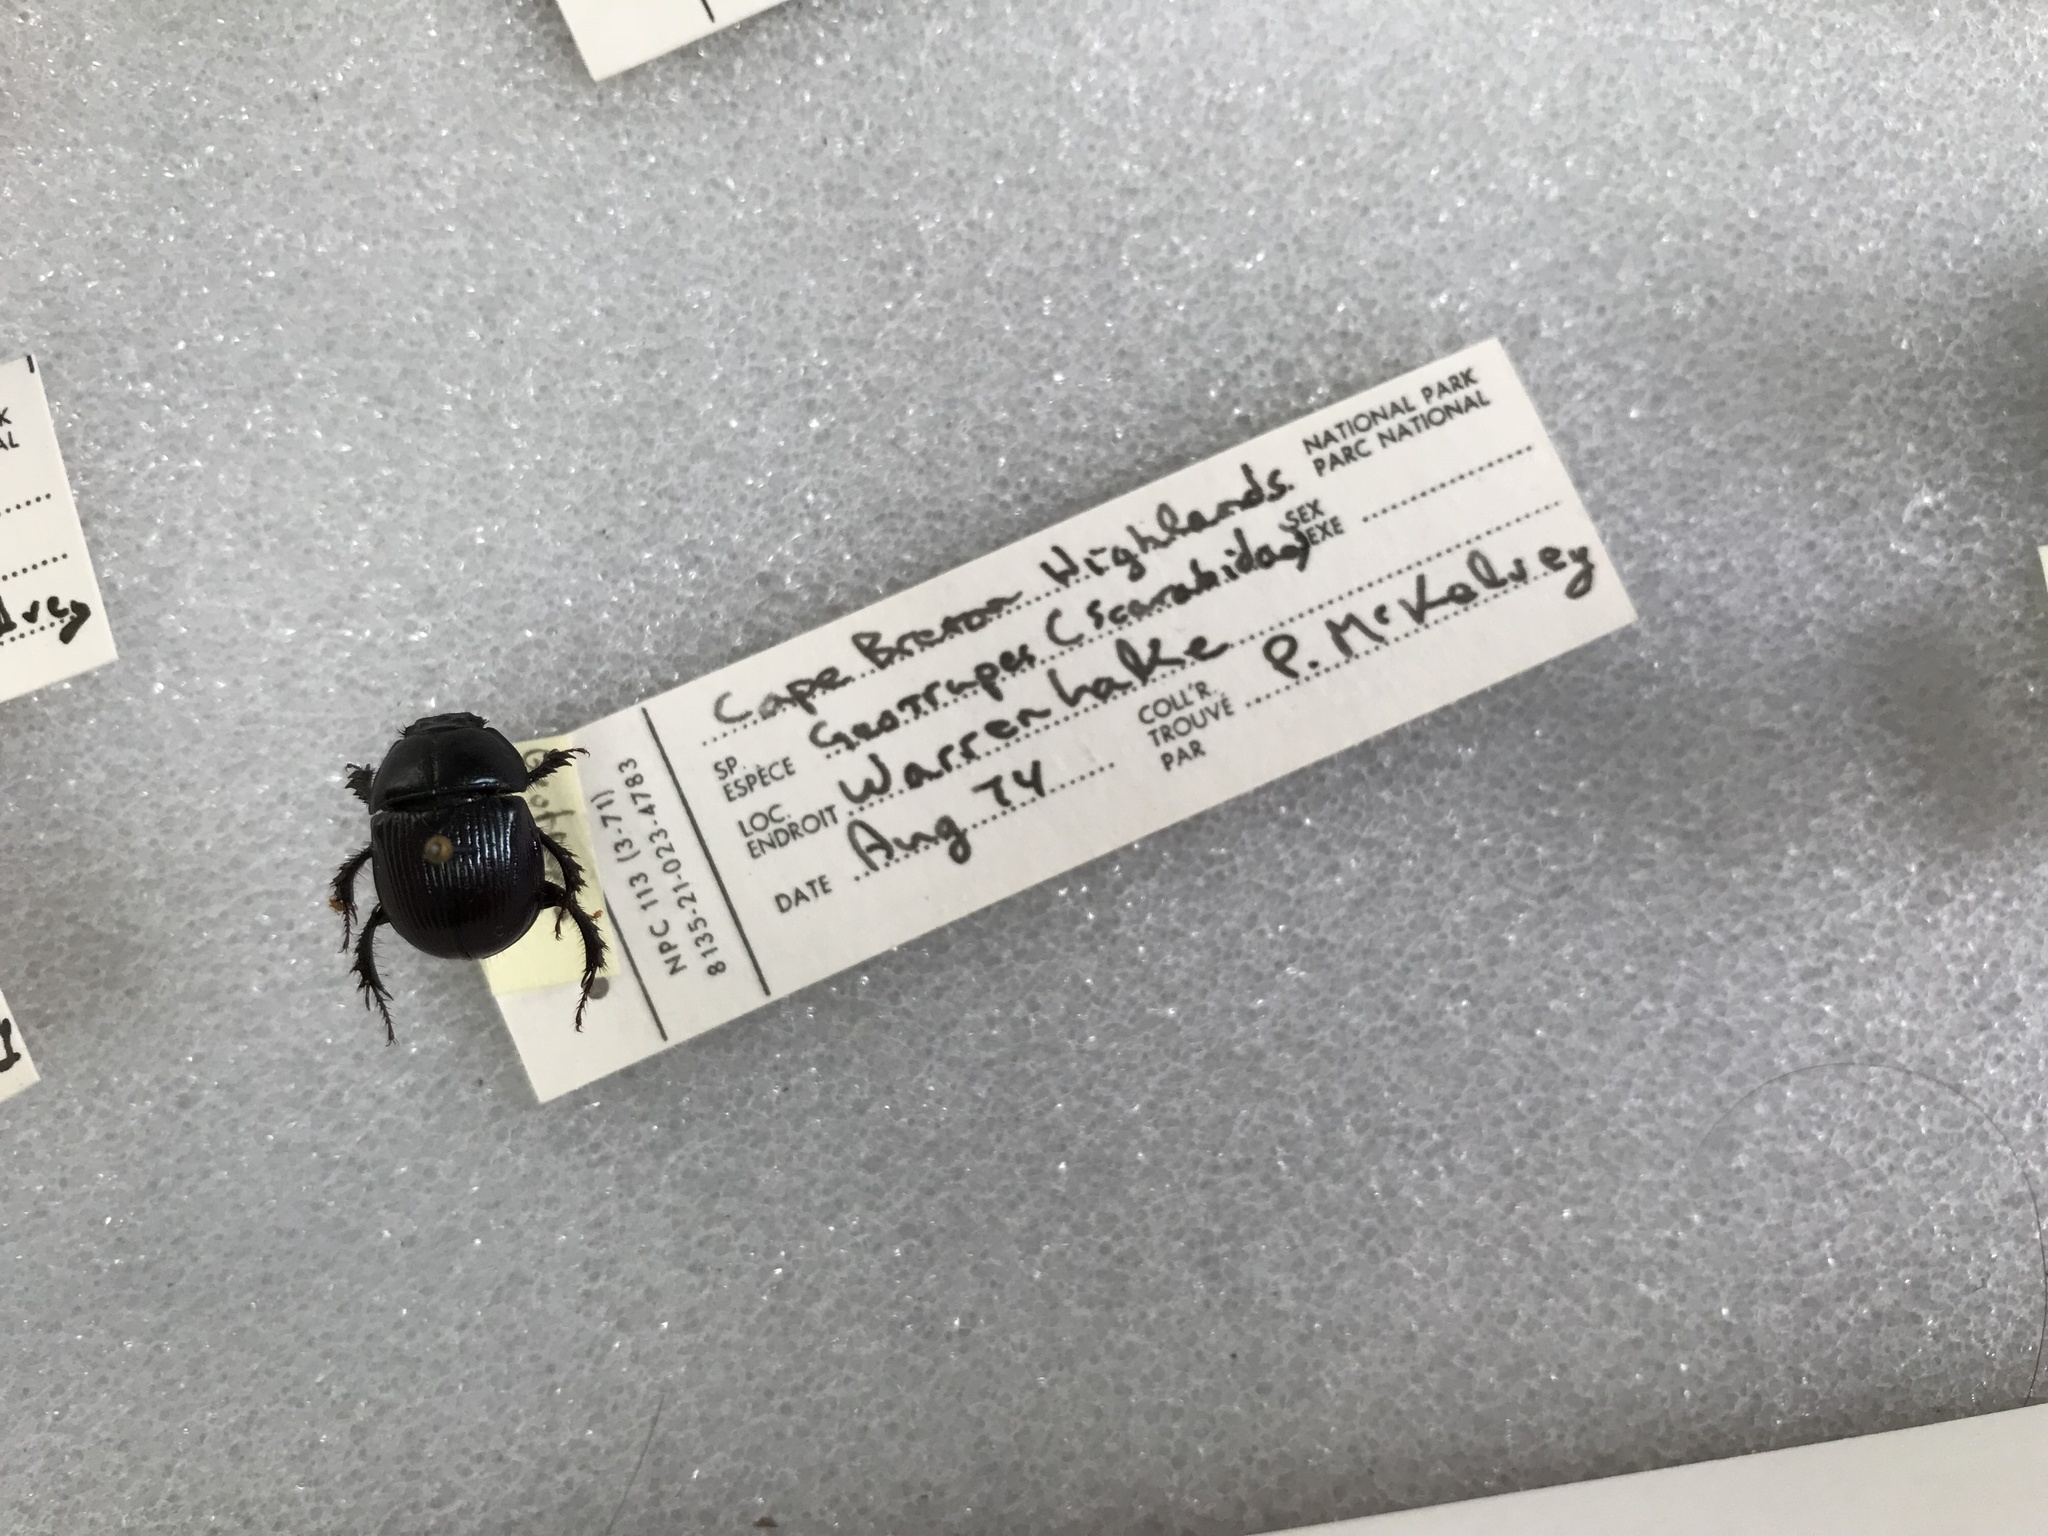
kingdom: Animalia
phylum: Arthropoda
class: Insecta
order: Coleoptera
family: Geotrupidae
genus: Anoplotrupes
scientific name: Anoplotrupes balyi
